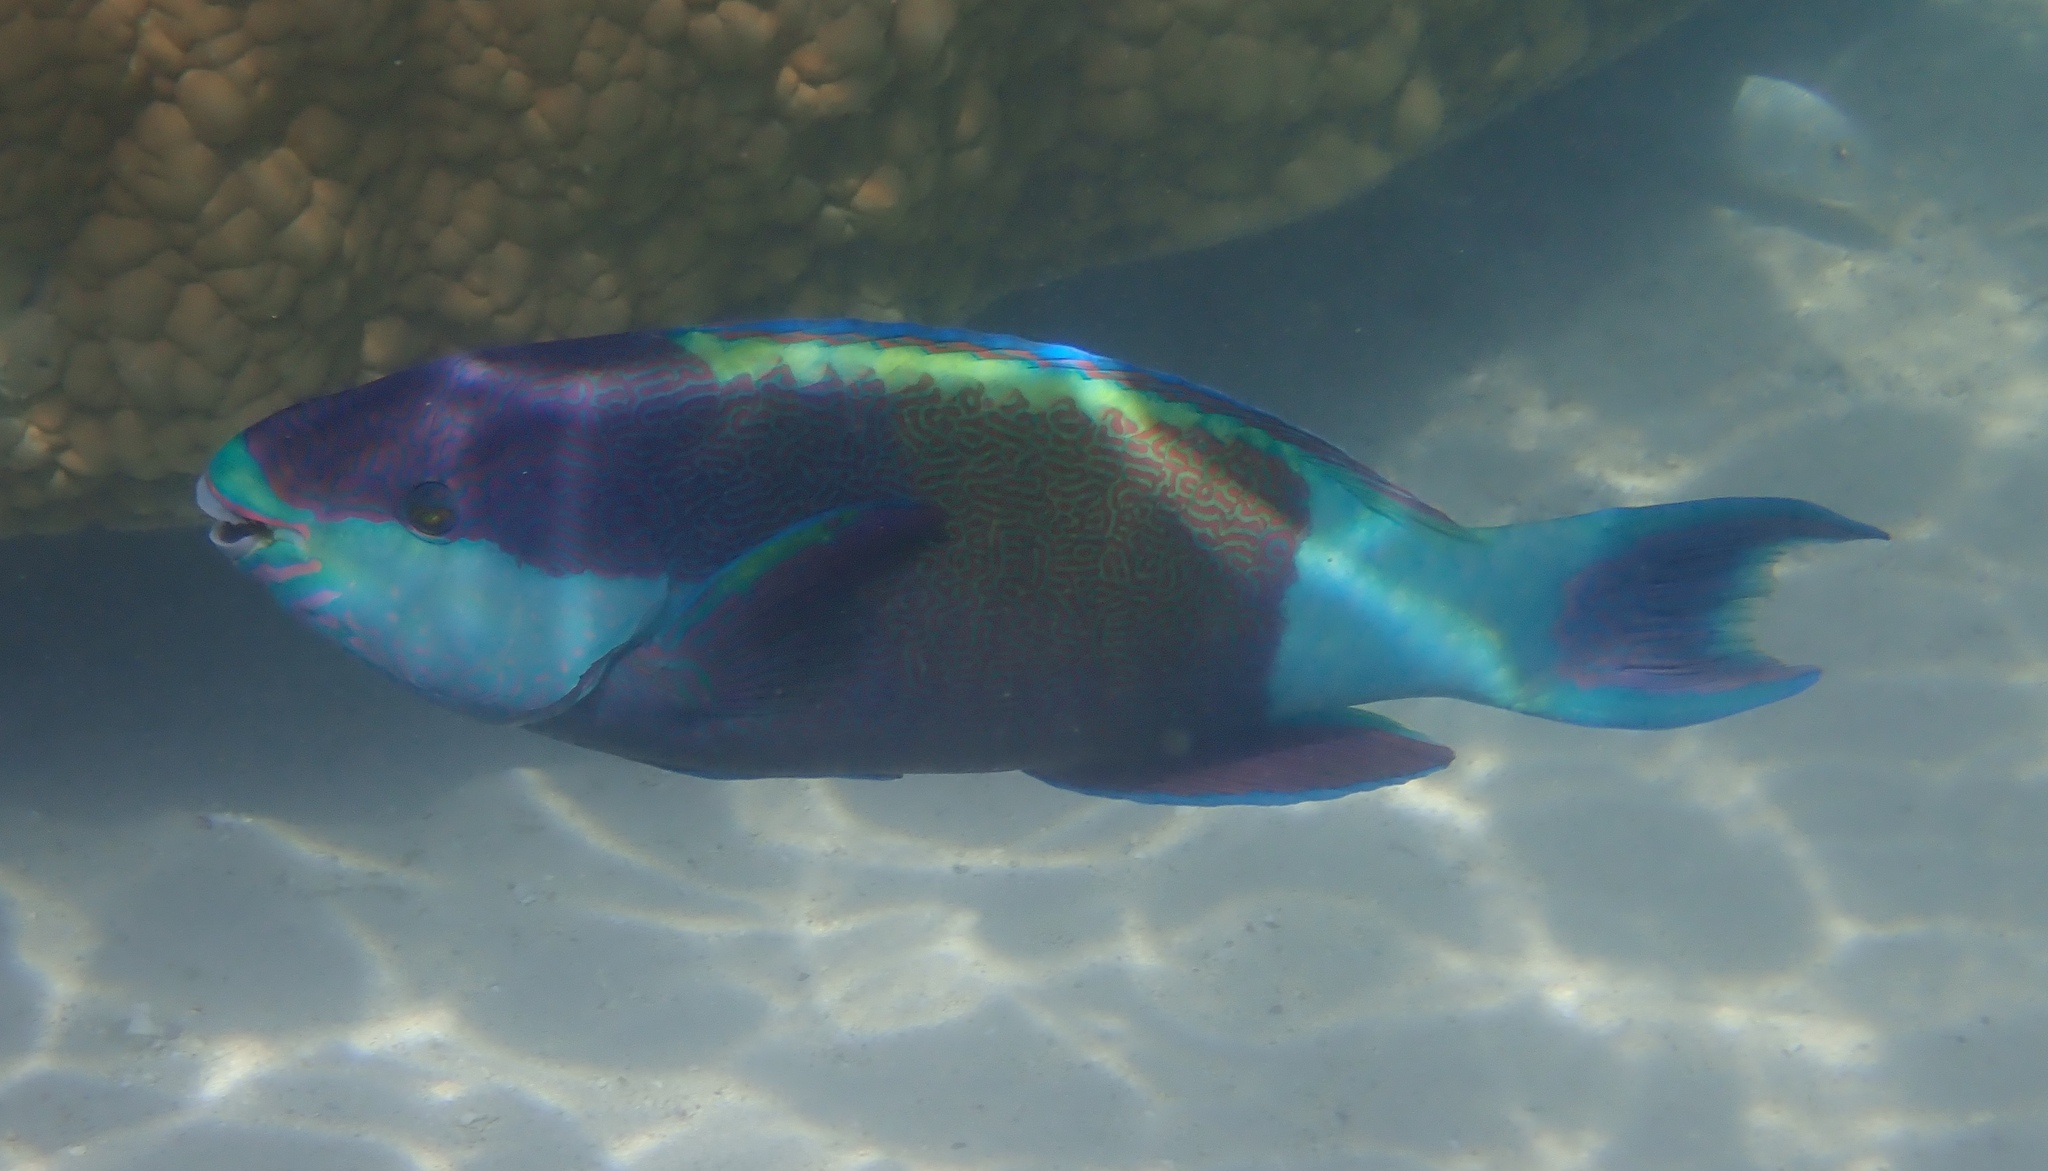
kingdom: Animalia
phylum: Chordata
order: Perciformes
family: Scaridae
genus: Scarus
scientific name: Scarus frenatus
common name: Bridled parrotfish
